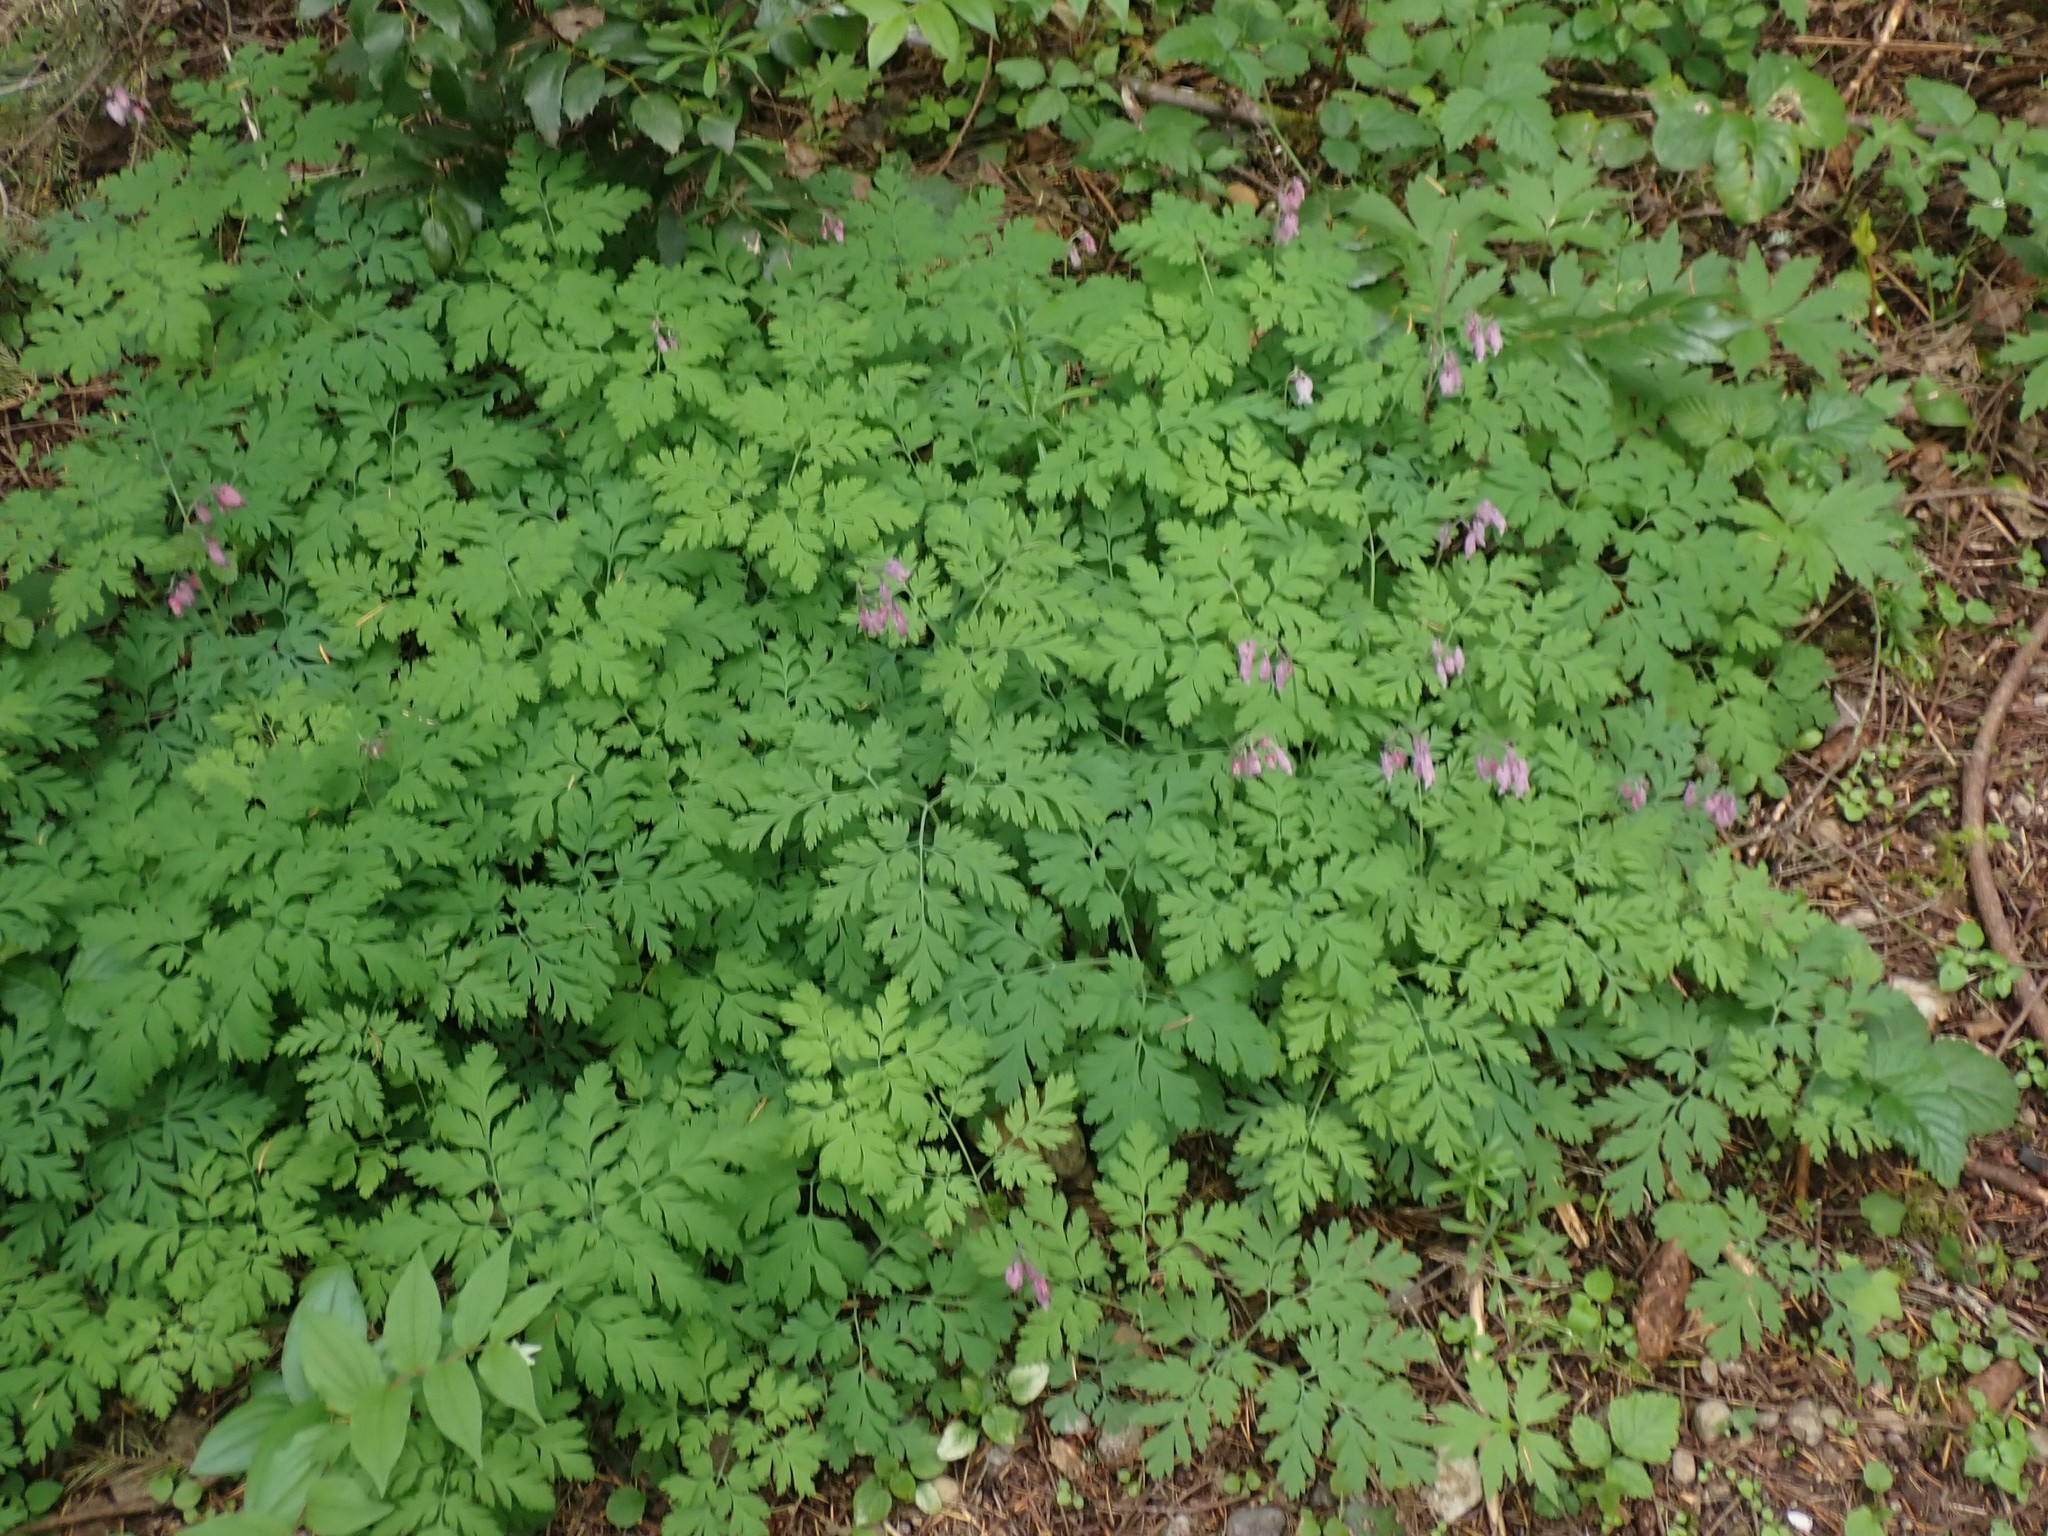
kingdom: Plantae
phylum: Tracheophyta
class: Magnoliopsida
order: Ranunculales
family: Papaveraceae
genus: Dicentra
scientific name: Dicentra formosa
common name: Bleeding-heart
